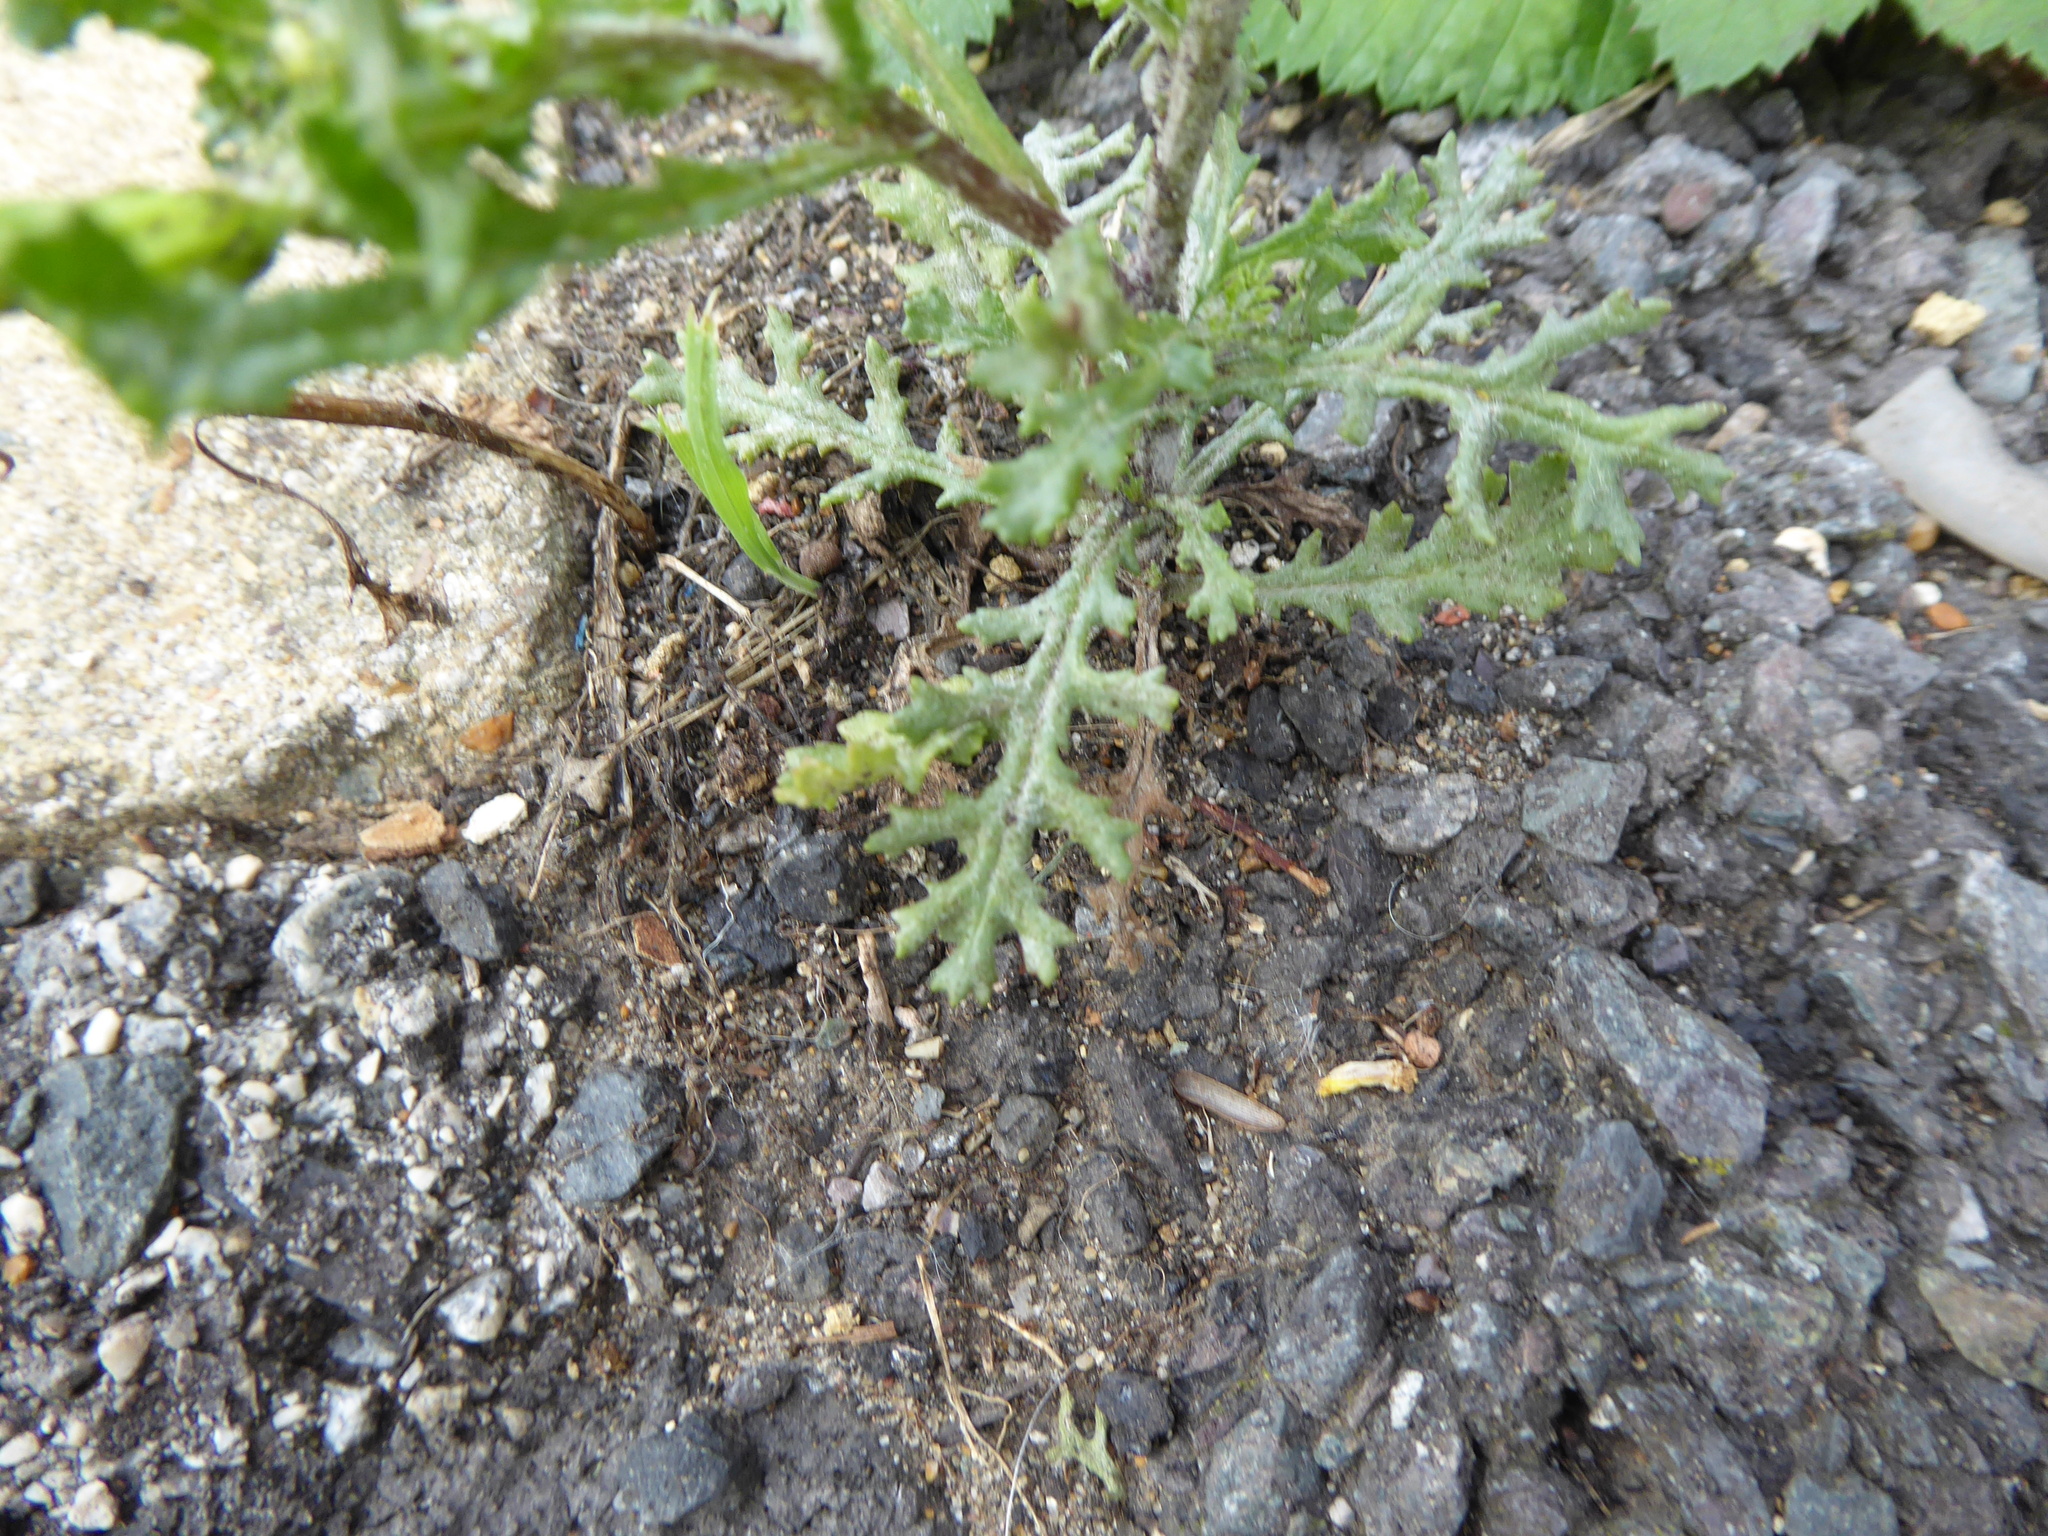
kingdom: Plantae
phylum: Tracheophyta
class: Magnoliopsida
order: Asterales
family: Asteraceae
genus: Senecio
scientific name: Senecio vulgaris
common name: Old-man-in-the-spring
